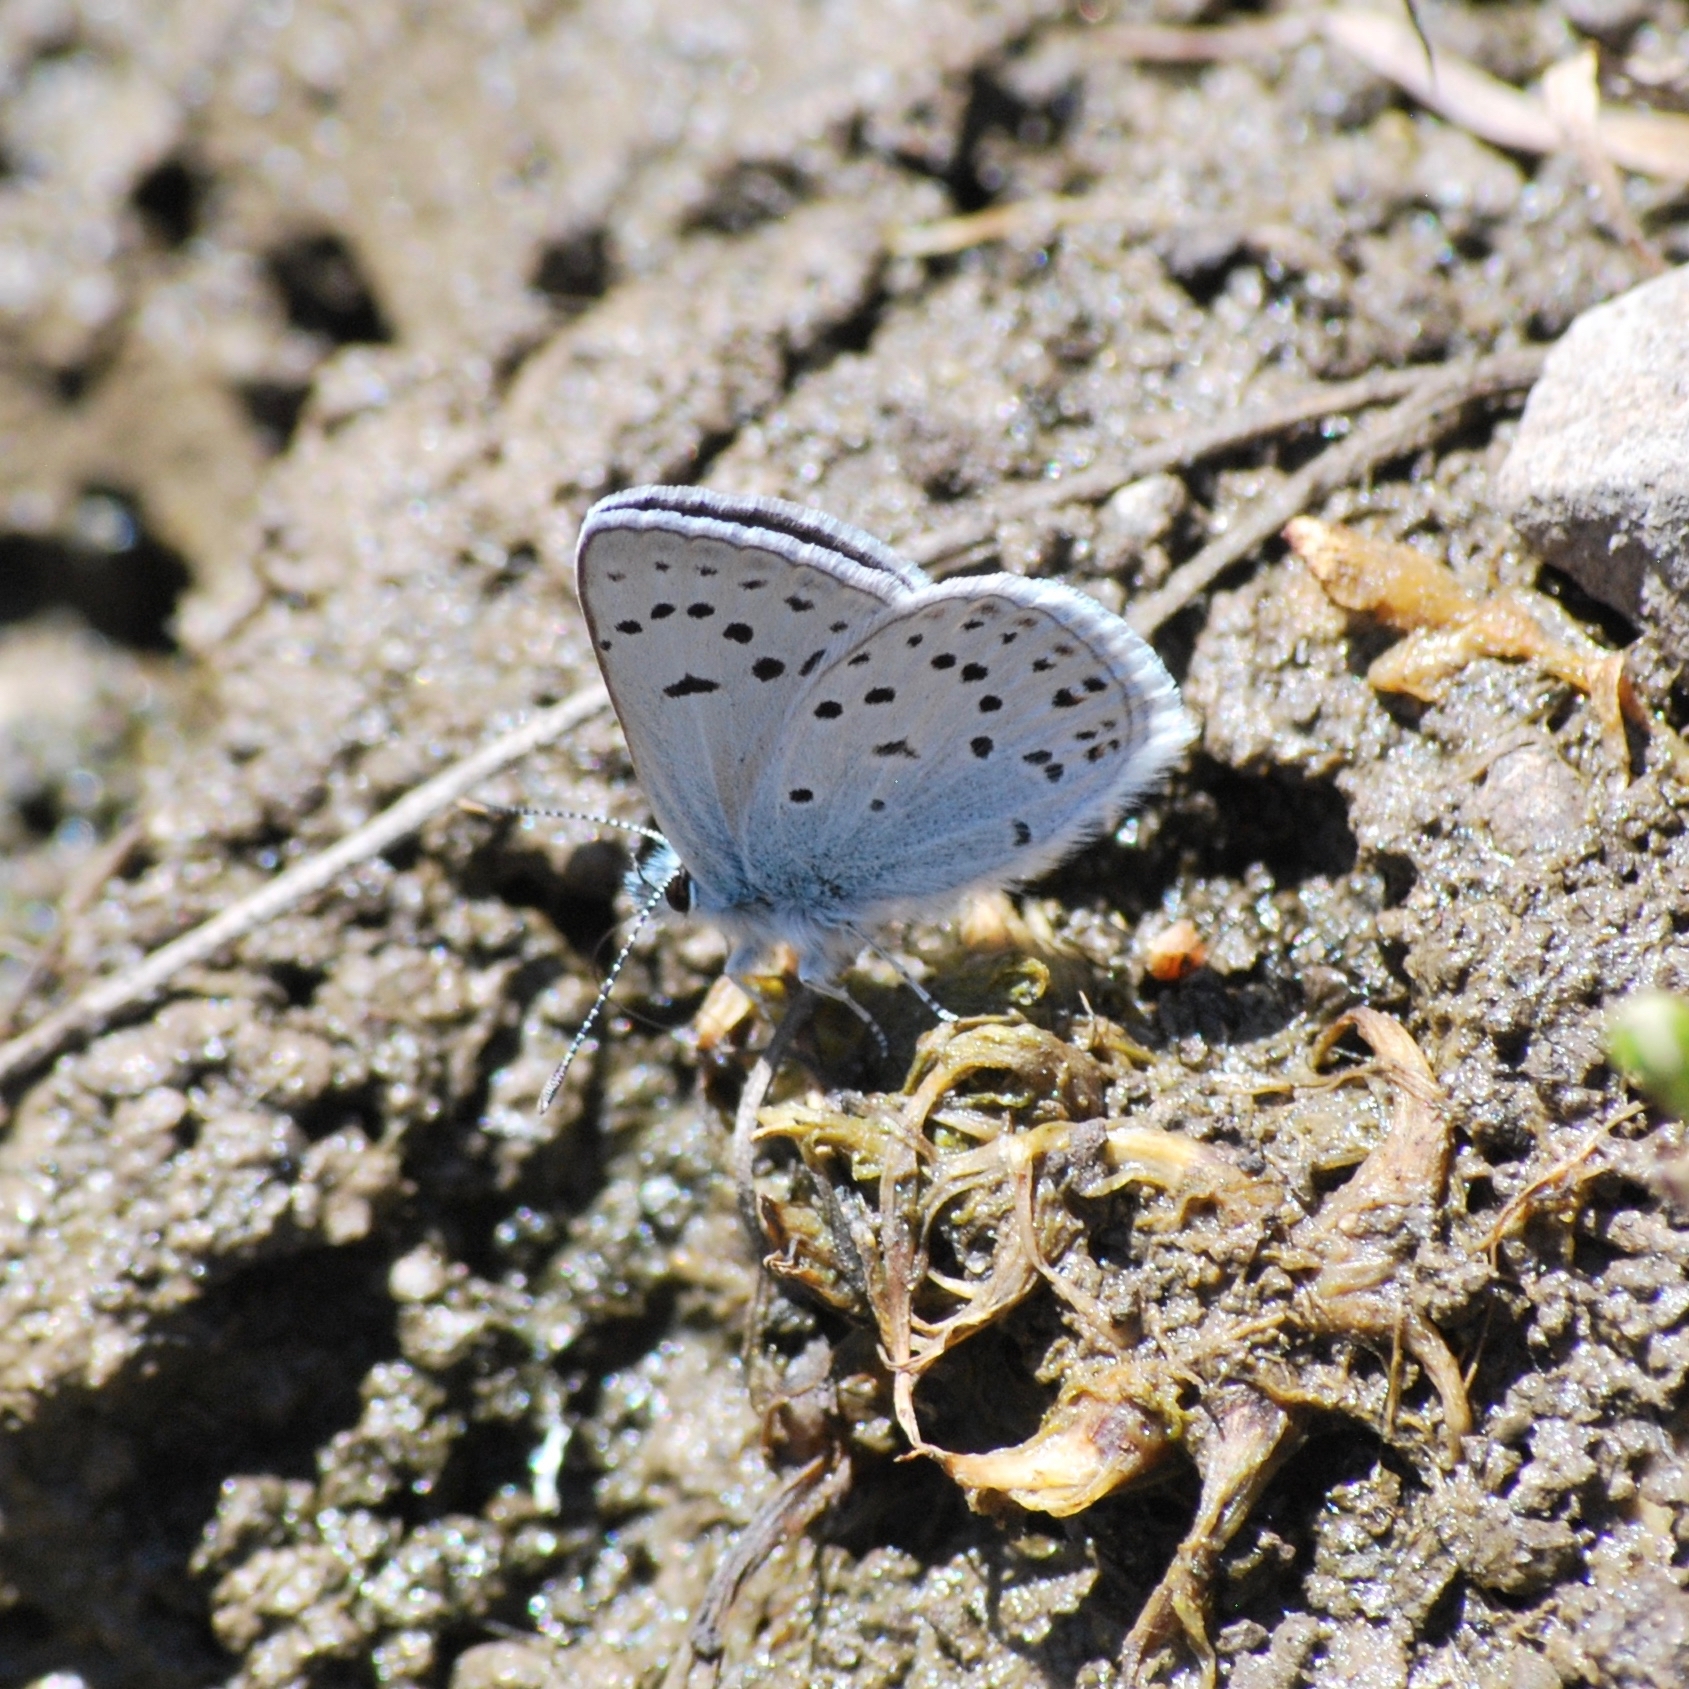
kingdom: Animalia
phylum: Arthropoda
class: Insecta
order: Lepidoptera
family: Lycaenidae
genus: Icaricia
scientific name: Icaricia saepiolus
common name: Greenish blue
